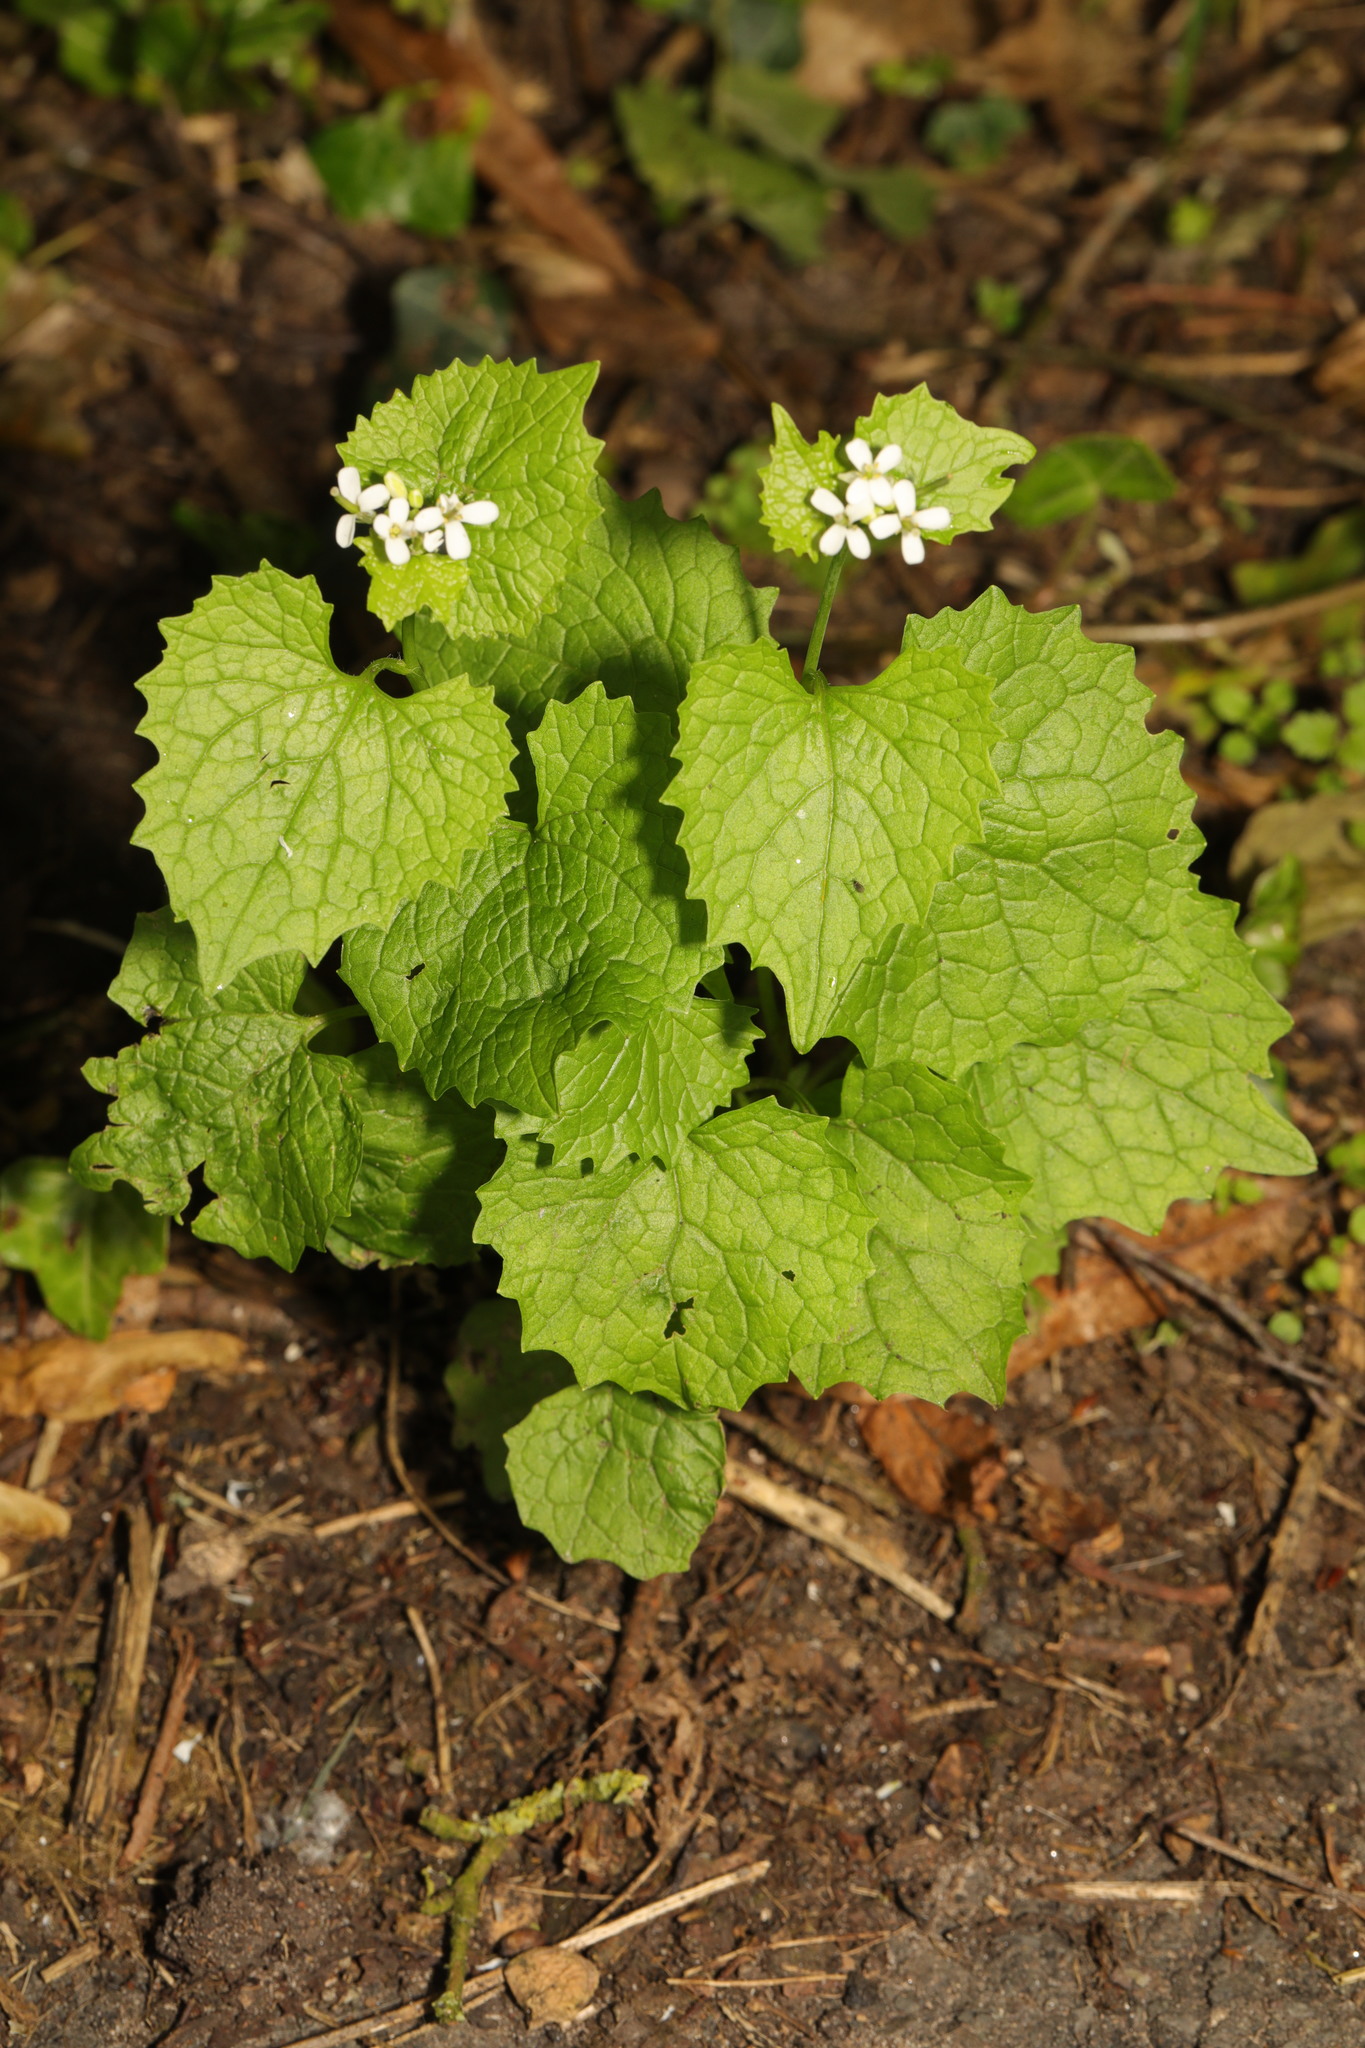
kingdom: Plantae
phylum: Tracheophyta
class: Magnoliopsida
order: Brassicales
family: Brassicaceae
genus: Alliaria
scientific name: Alliaria petiolata
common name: Garlic mustard
